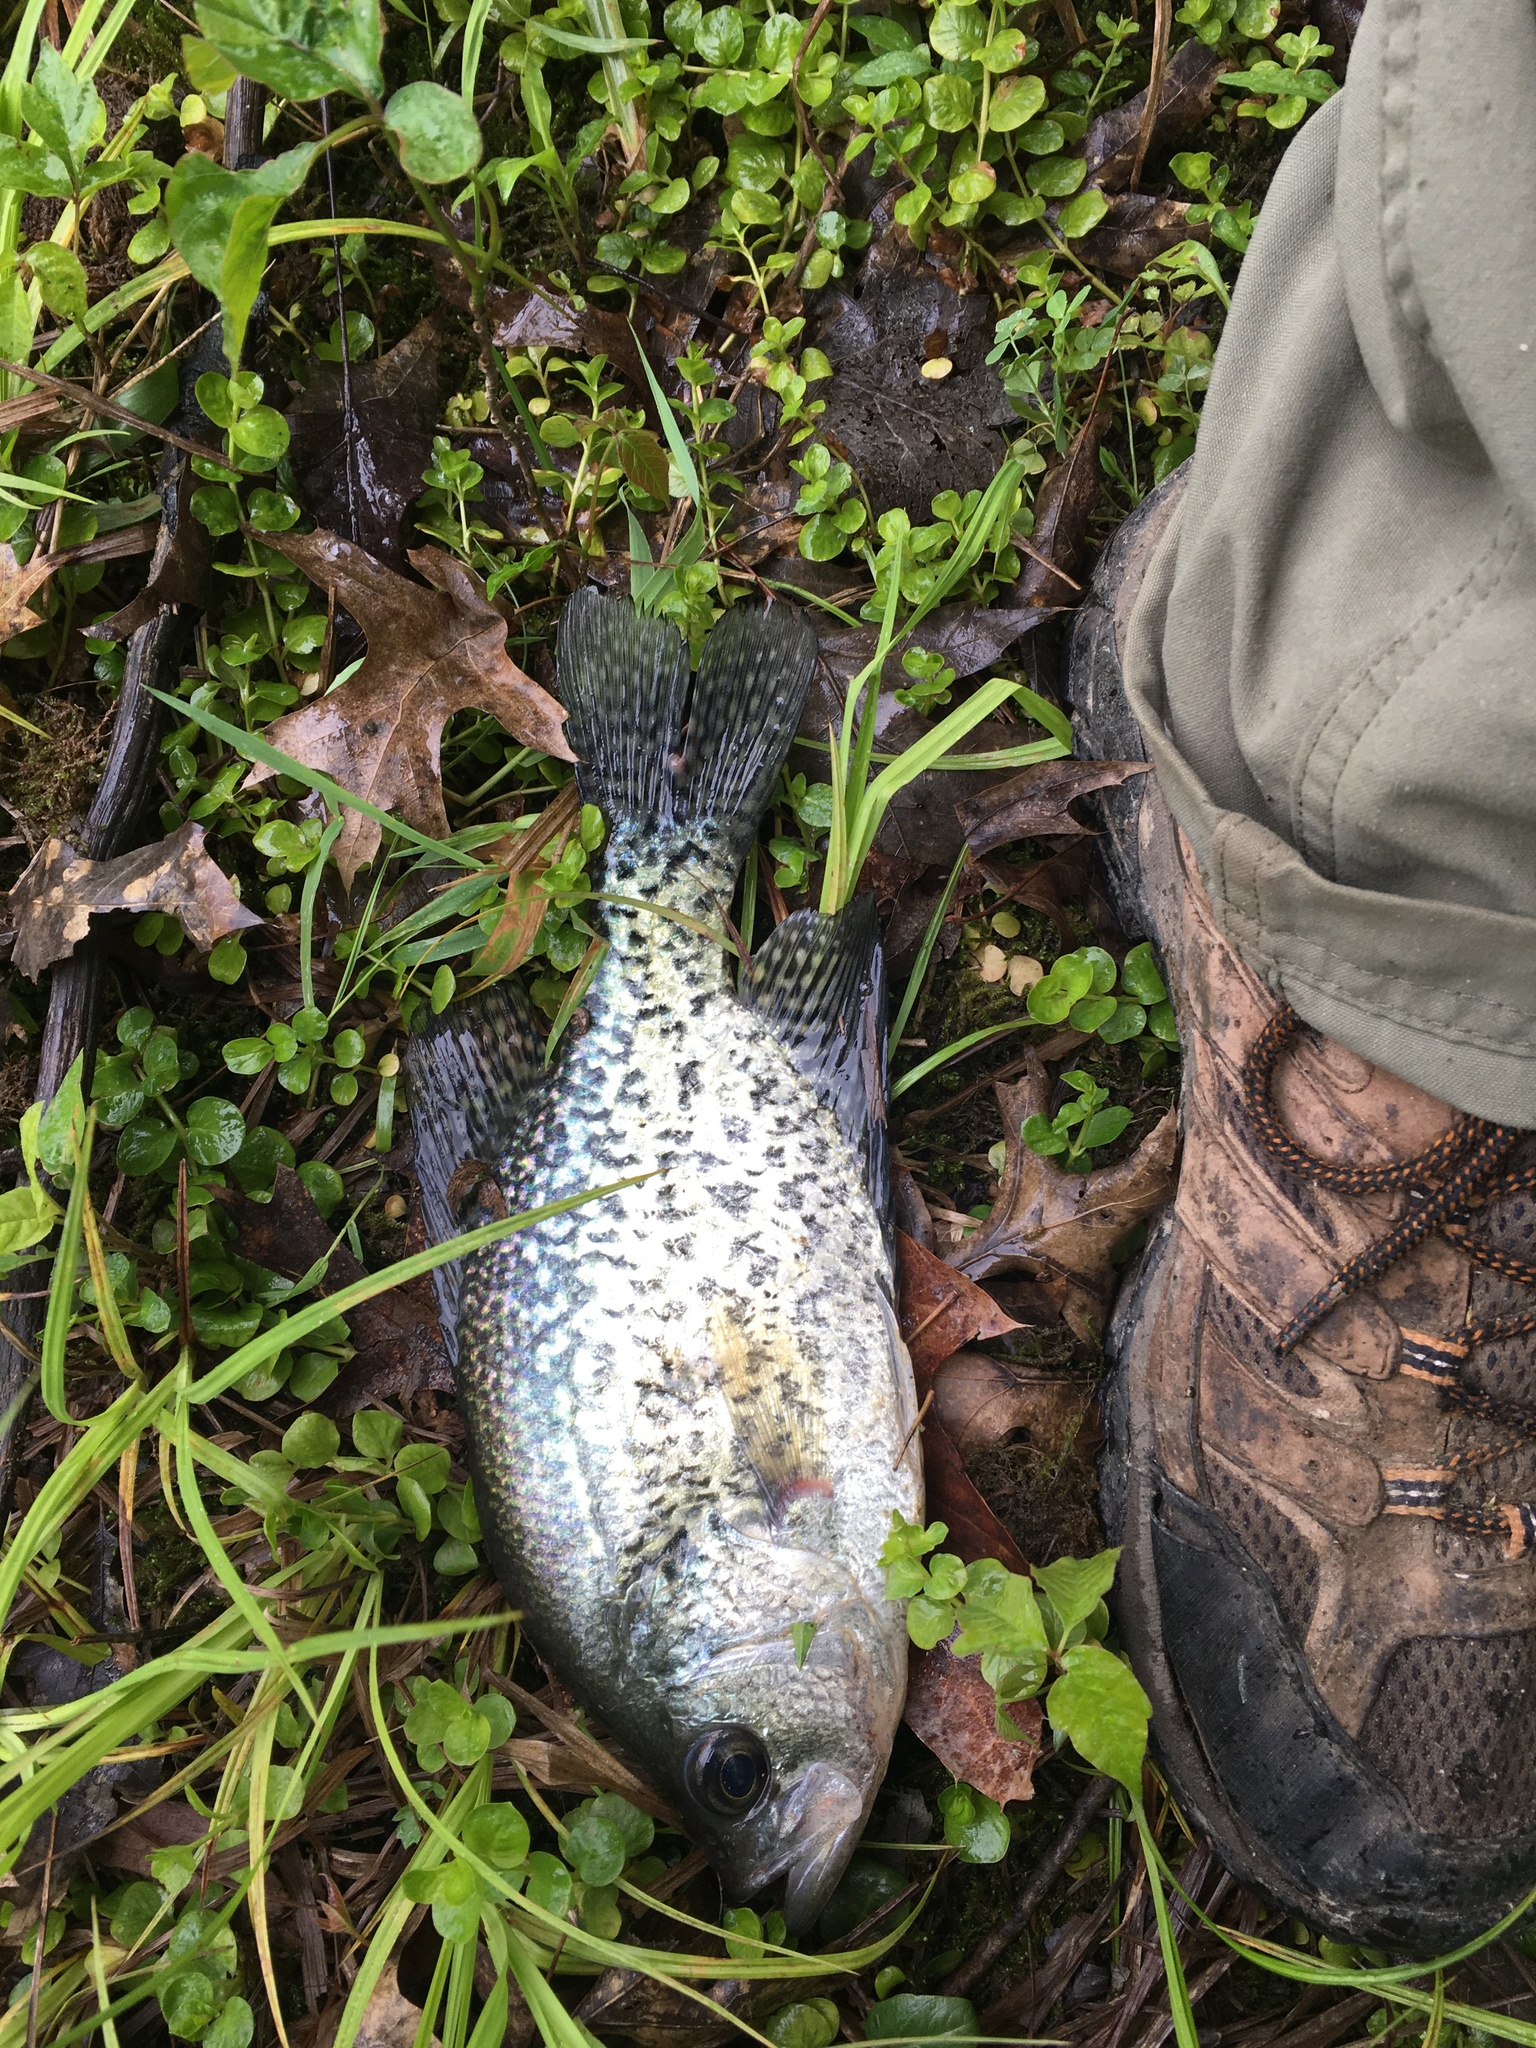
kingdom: Animalia
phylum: Chordata
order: Perciformes
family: Centrarchidae
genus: Pomoxis
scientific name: Pomoxis nigromaculatus
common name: Black crappie
